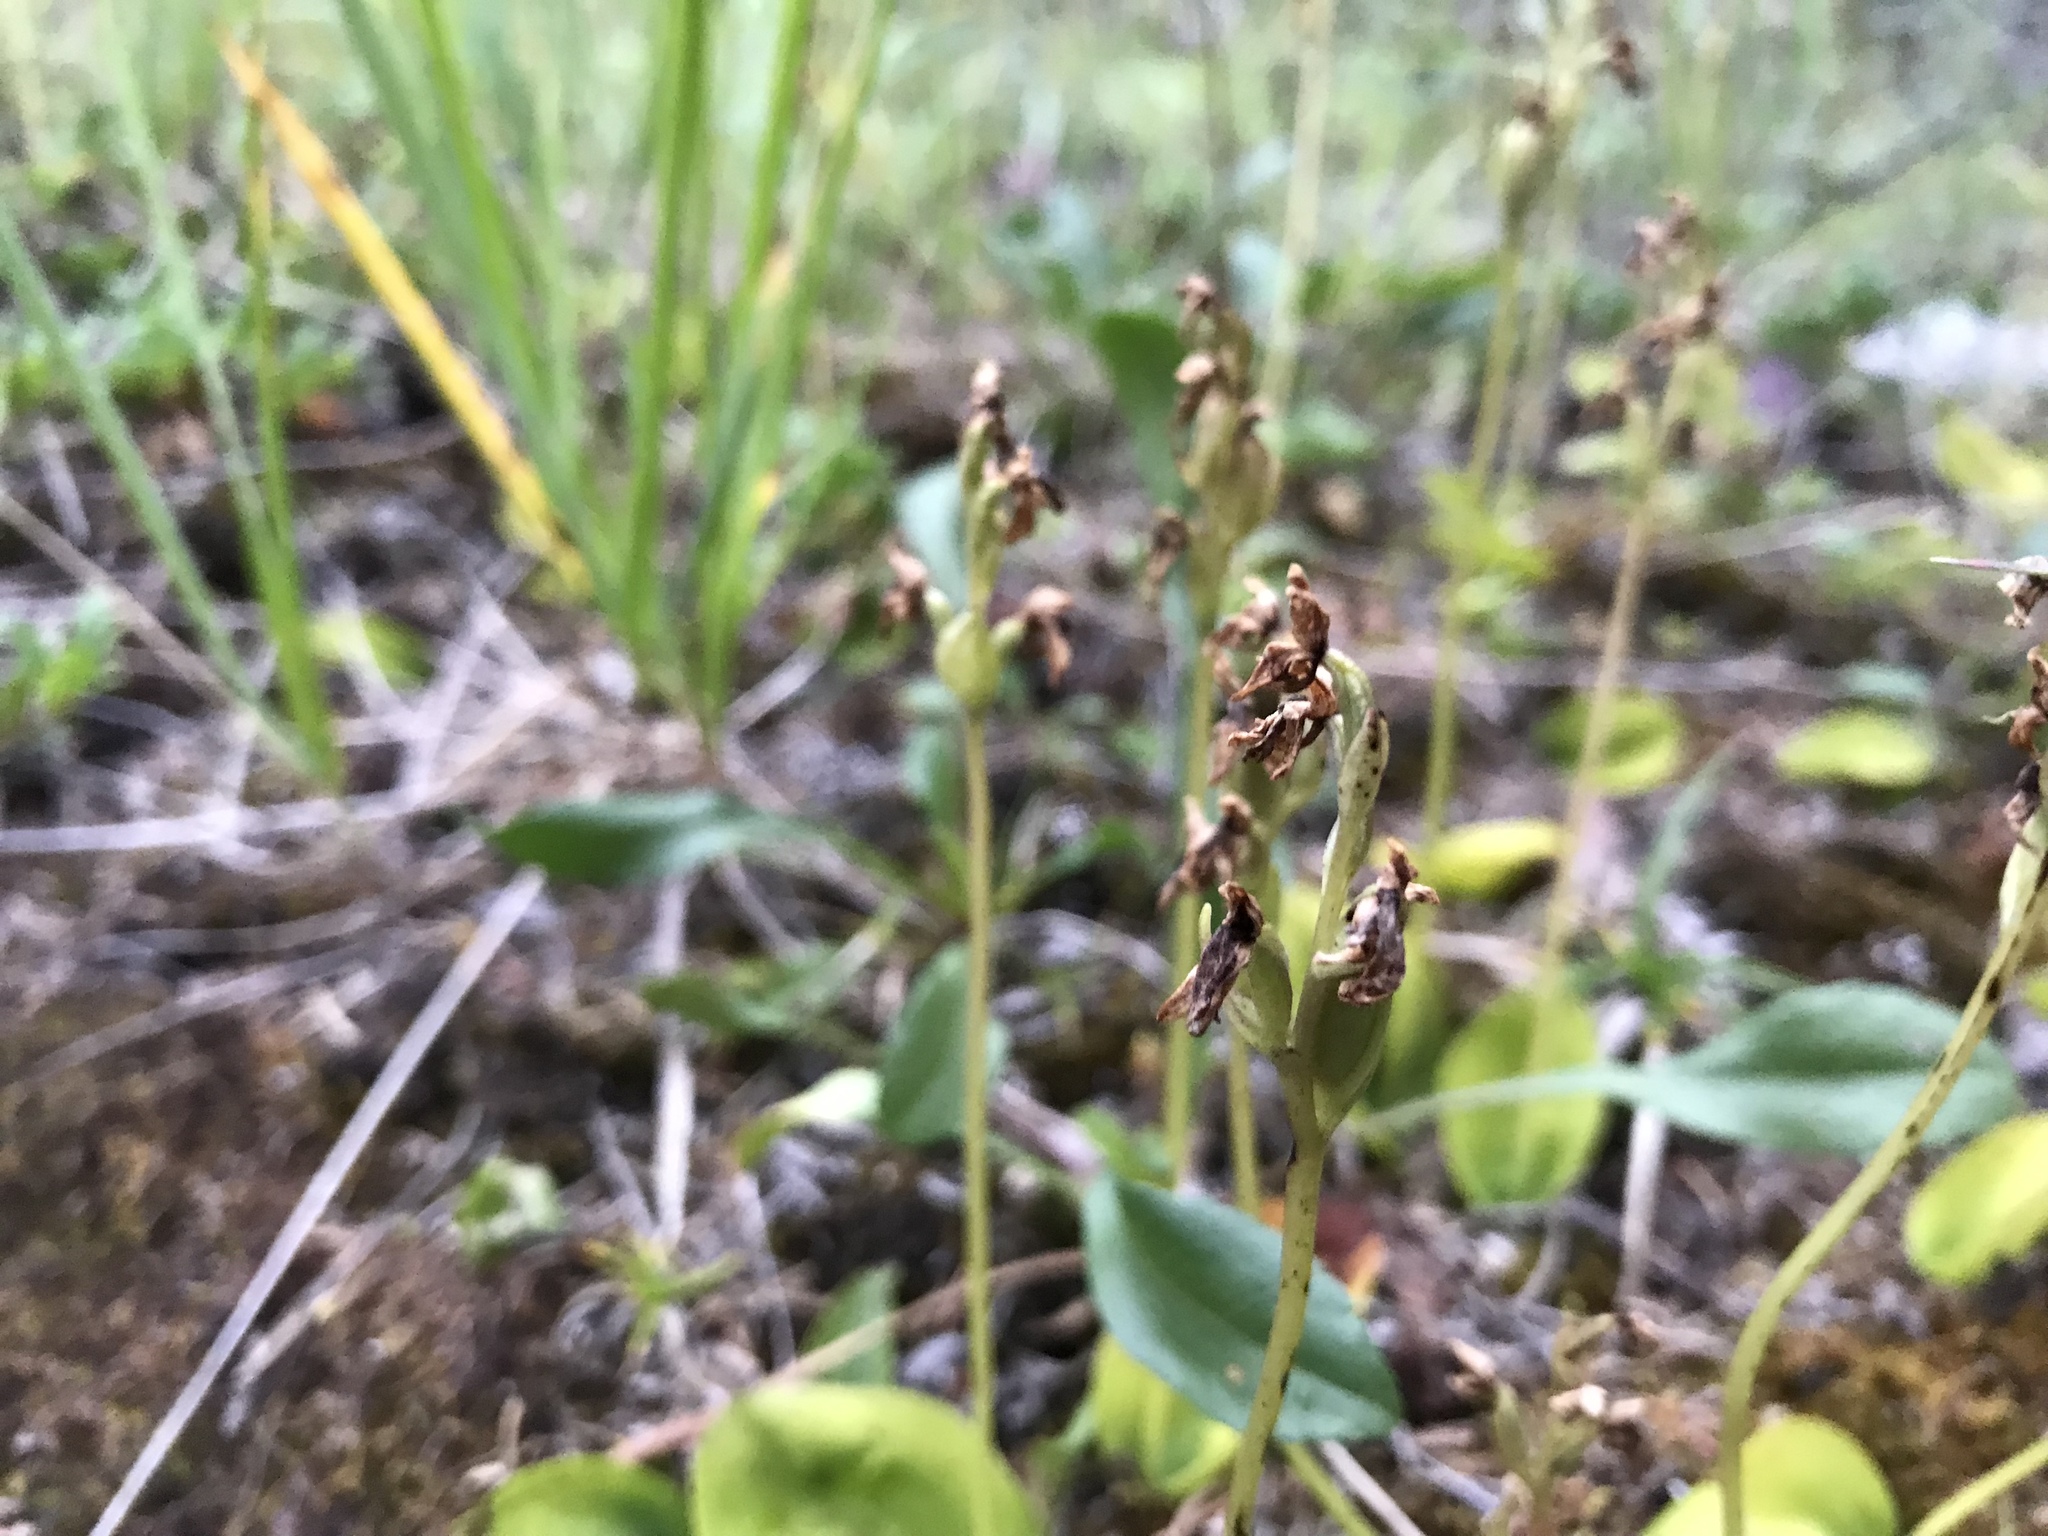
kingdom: Plantae
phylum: Tracheophyta
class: Liliopsida
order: Asparagales
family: Orchidaceae
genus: Galearis
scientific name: Galearis rotundifolia
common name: One-leaved orchis
